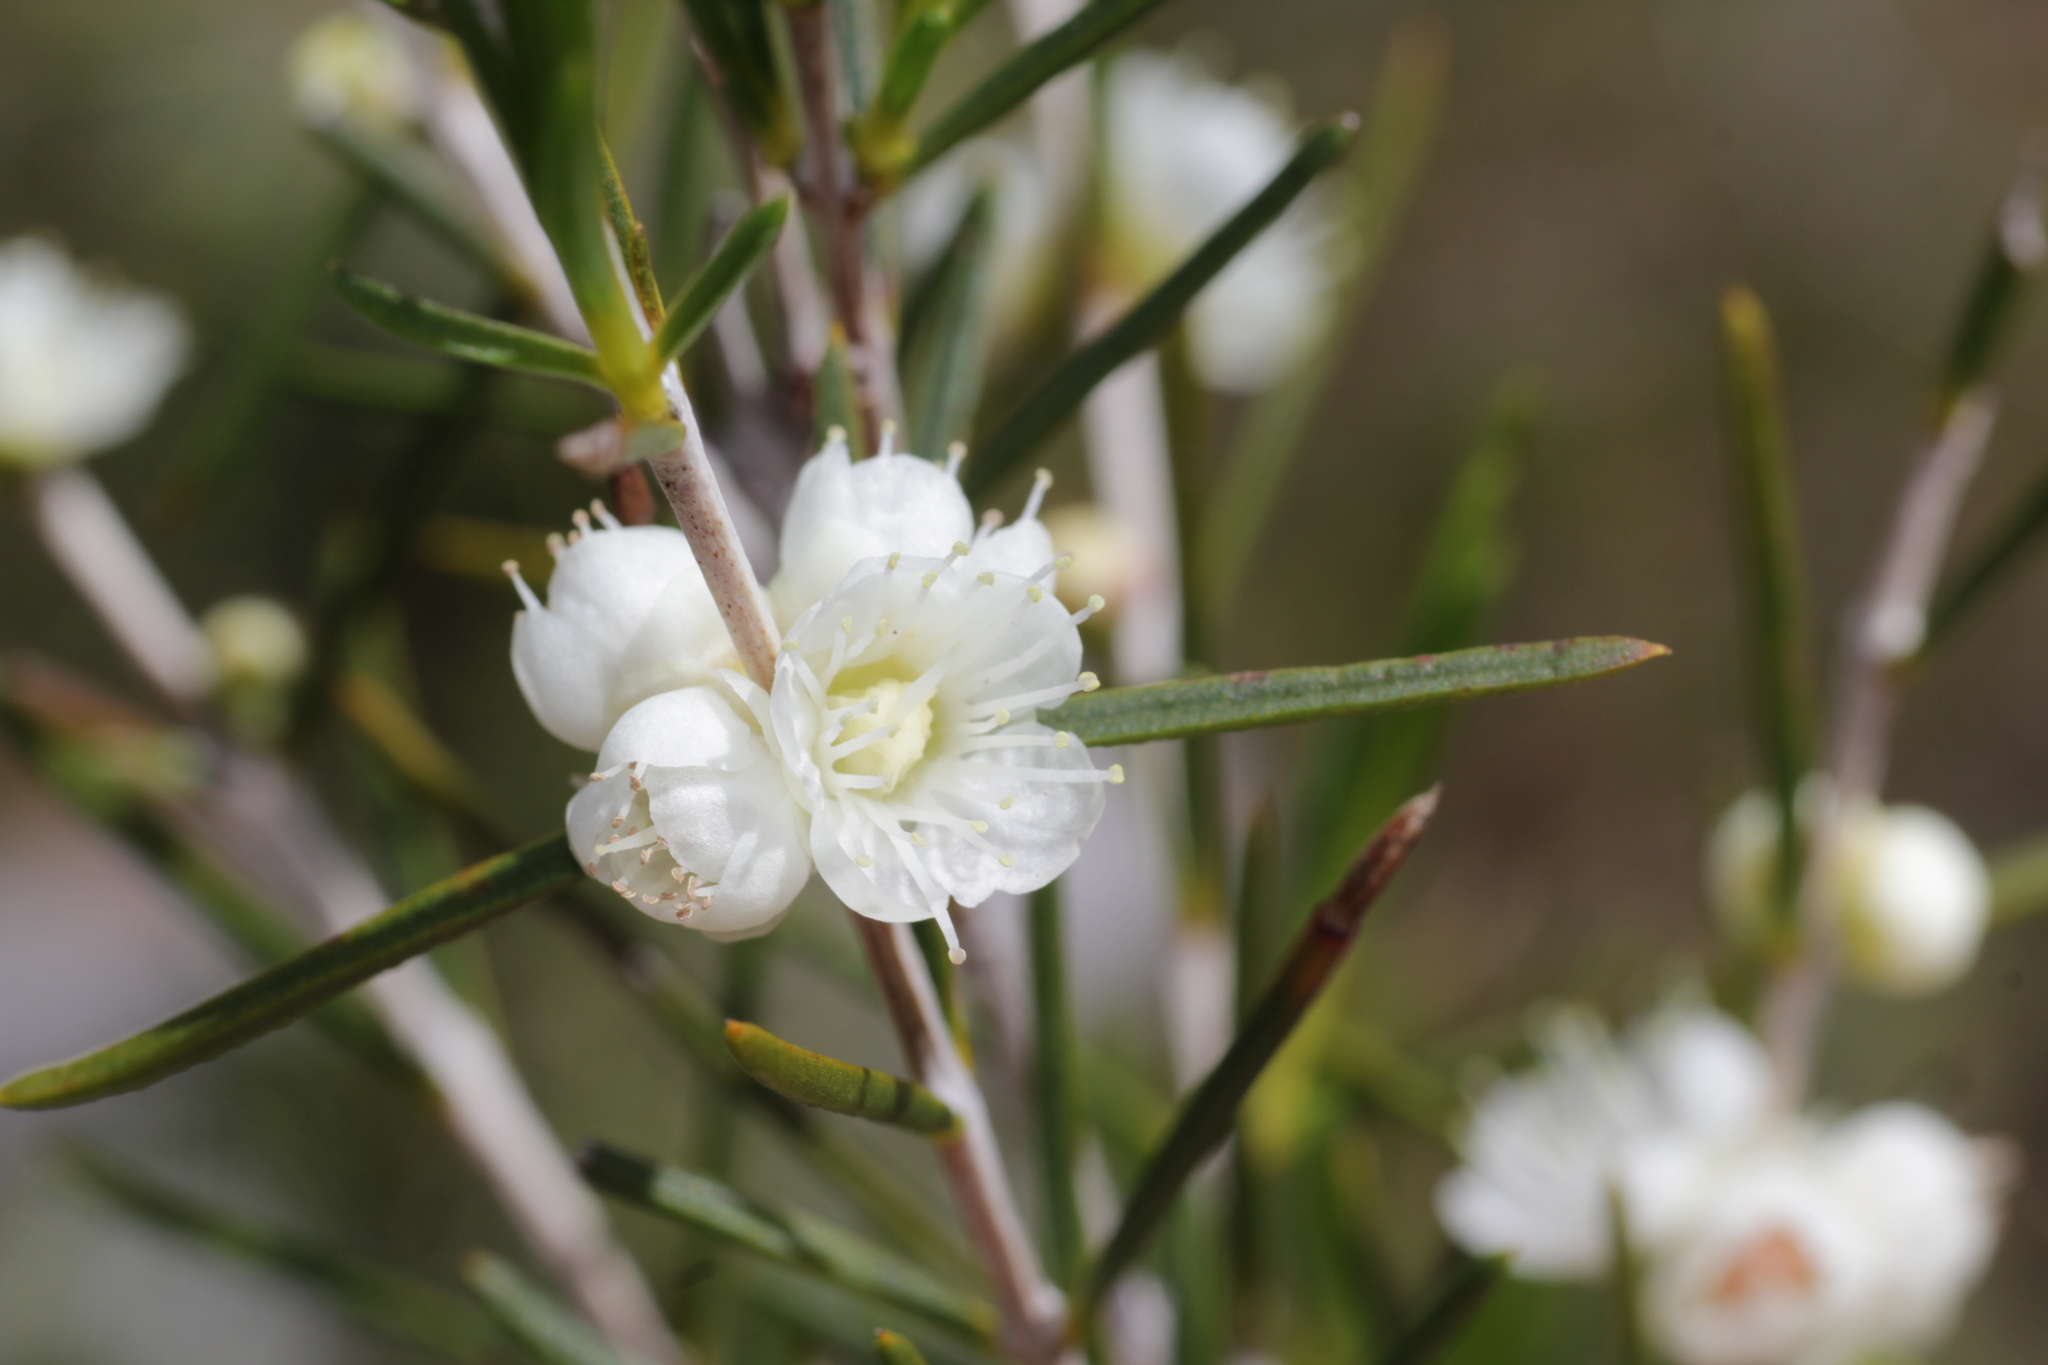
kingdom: Plantae
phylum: Tracheophyta
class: Magnoliopsida
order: Myrtales
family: Myrtaceae
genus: Hypocalymma
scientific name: Hypocalymma angustifolium
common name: White myrtle
